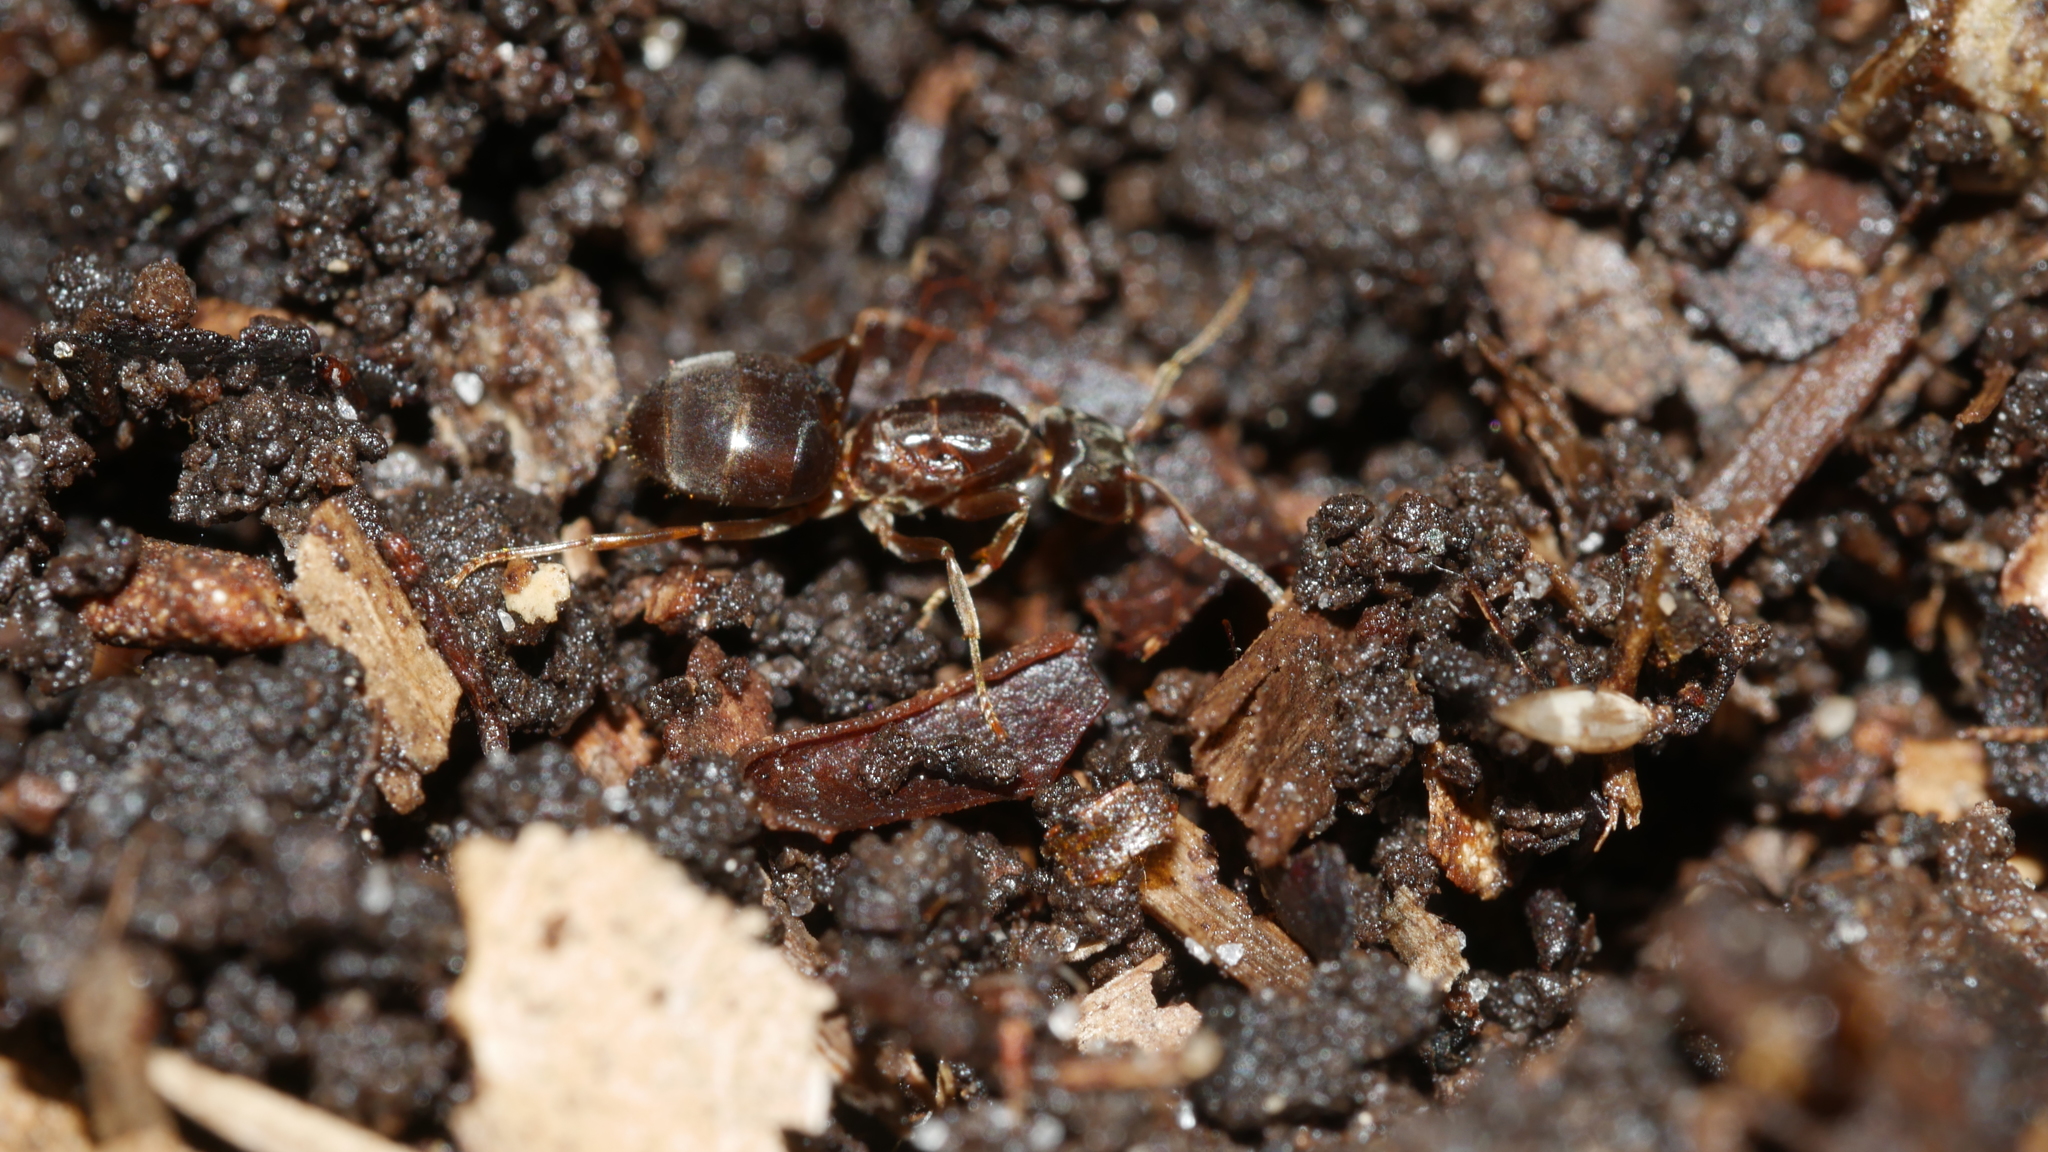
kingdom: Animalia
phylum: Arthropoda
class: Insecta
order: Hymenoptera
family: Formicidae
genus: Lasius
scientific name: Lasius aphidicola
